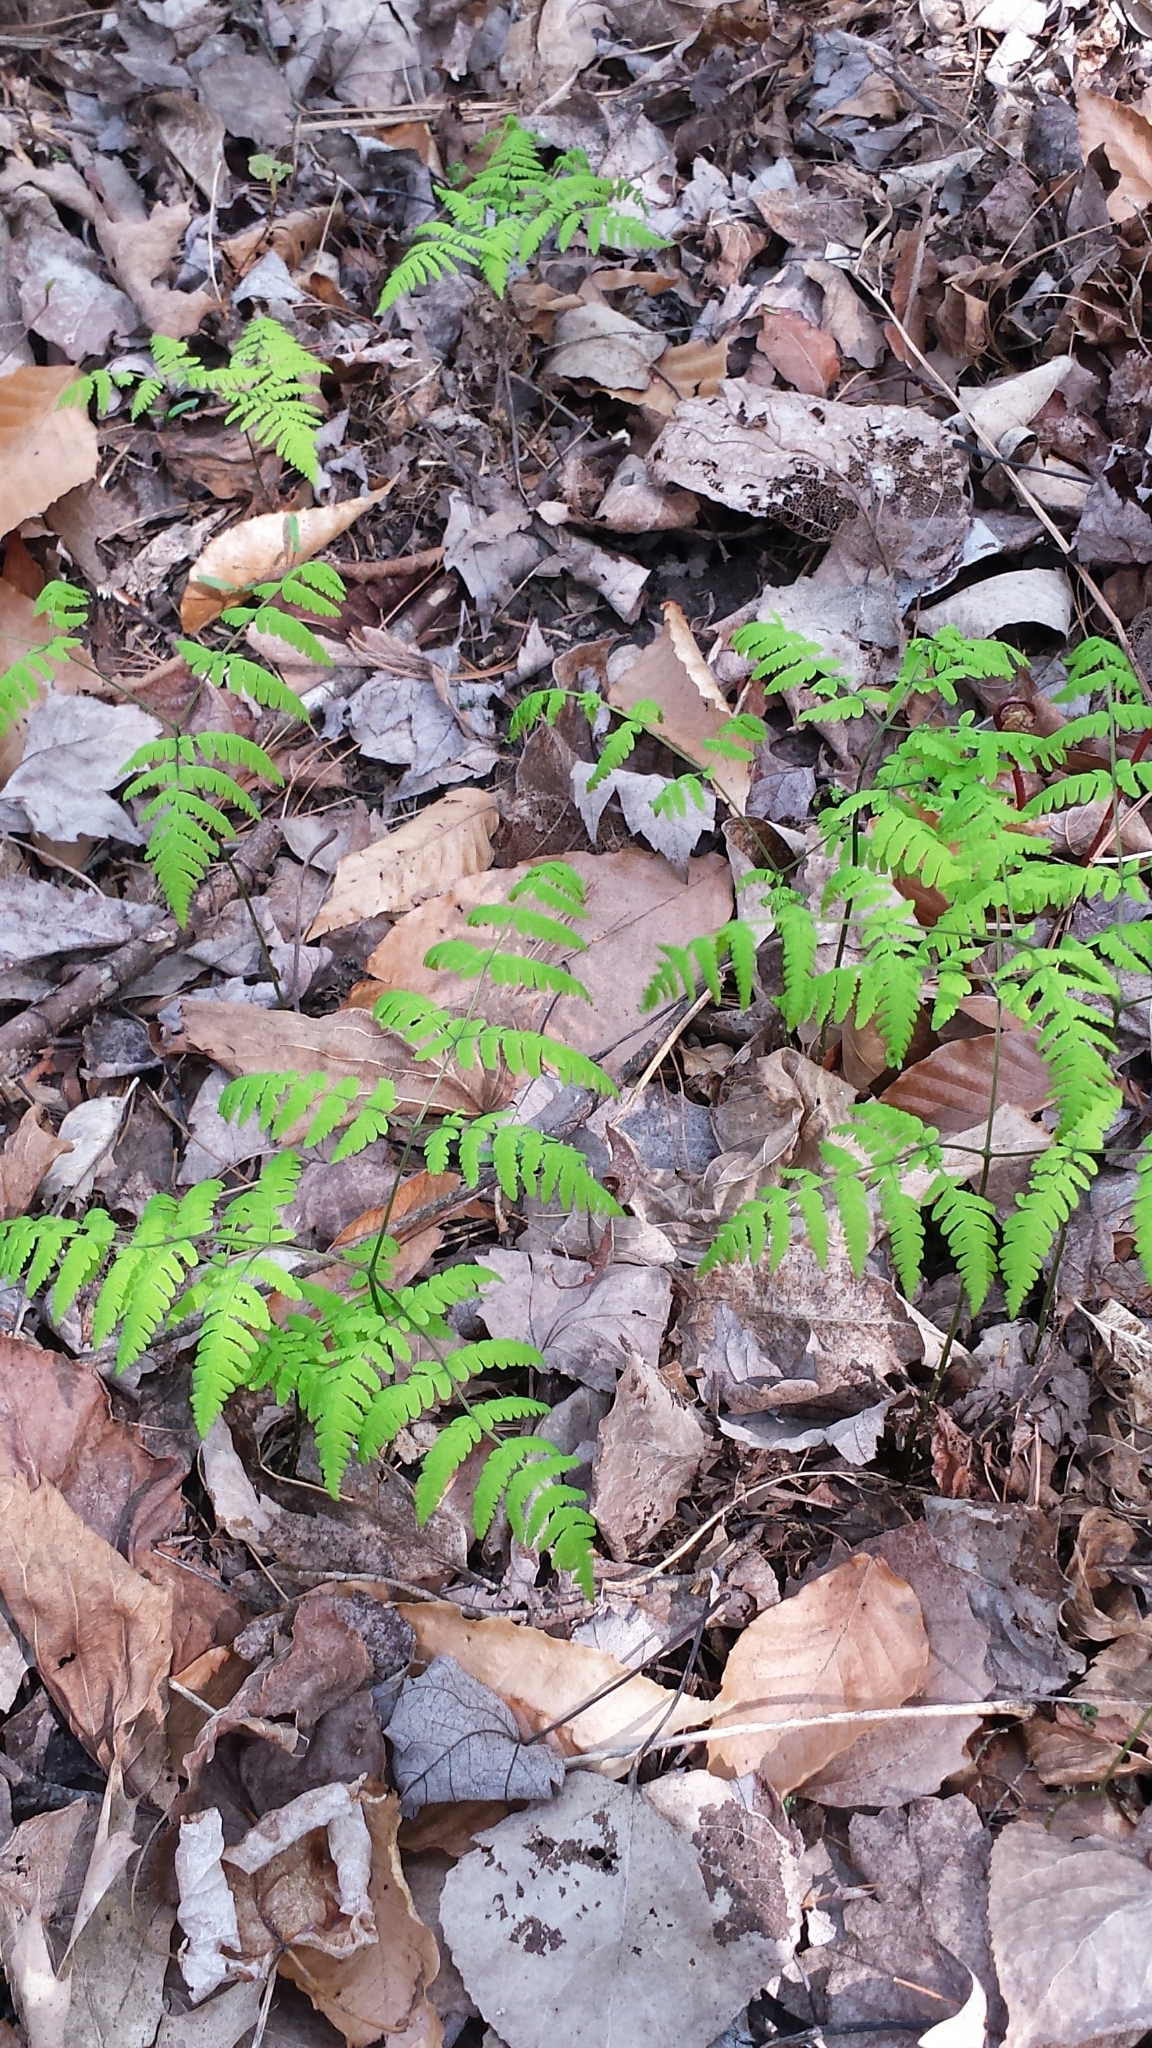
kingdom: Plantae
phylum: Tracheophyta
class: Polypodiopsida
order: Polypodiales
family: Cystopteridaceae
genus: Gymnocarpium
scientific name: Gymnocarpium dryopteris
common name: Oak fern
